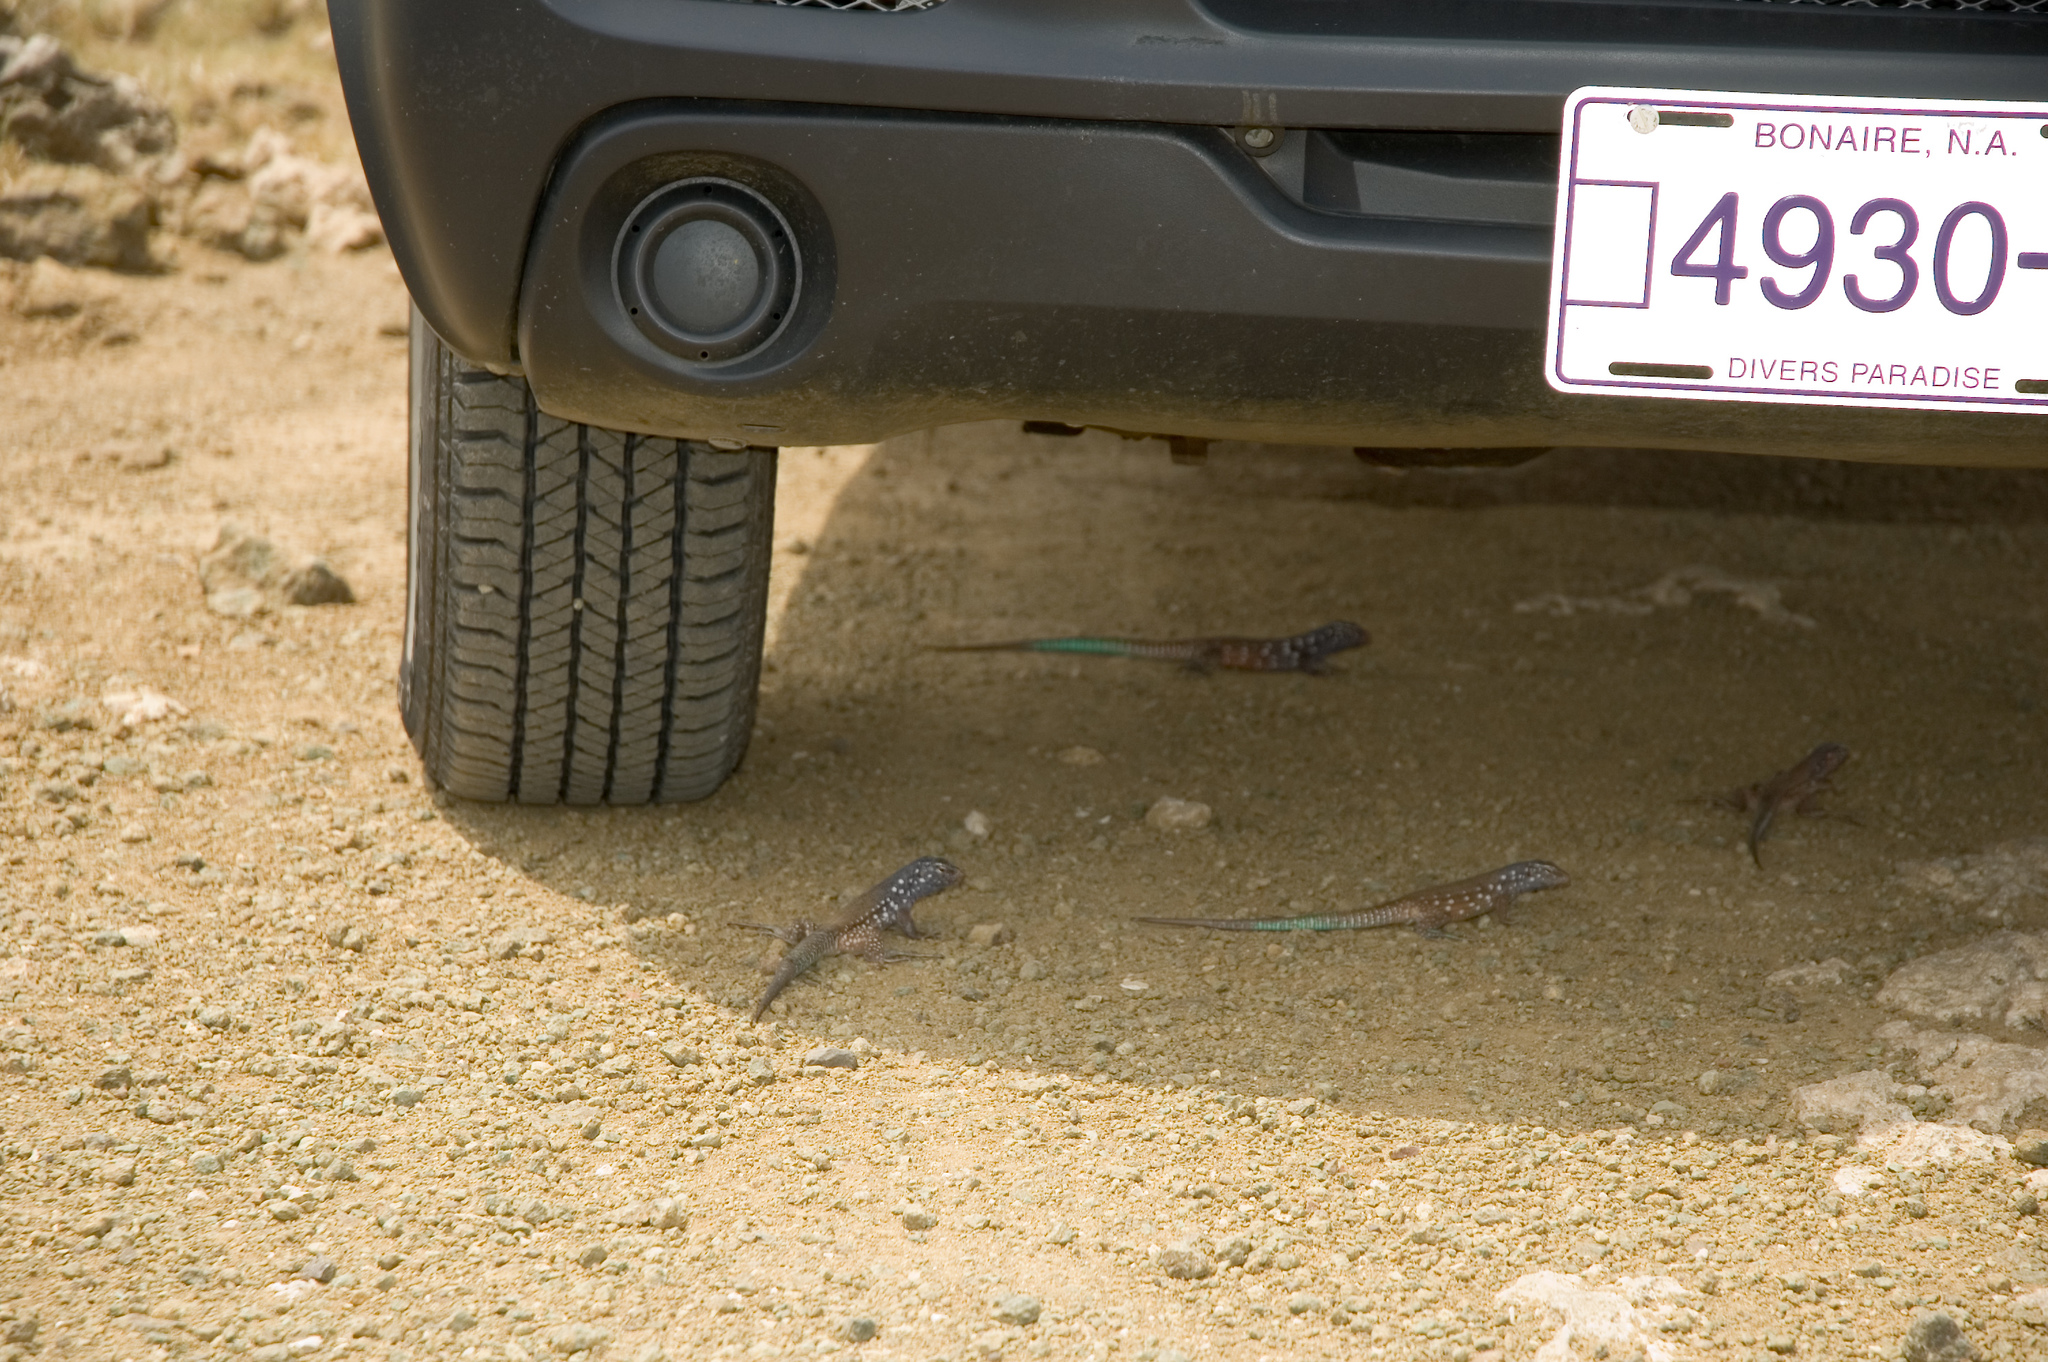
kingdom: Animalia
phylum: Chordata
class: Squamata
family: Teiidae
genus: Cnemidophorus
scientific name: Cnemidophorus ruthveni
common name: Bonaire whiptail
